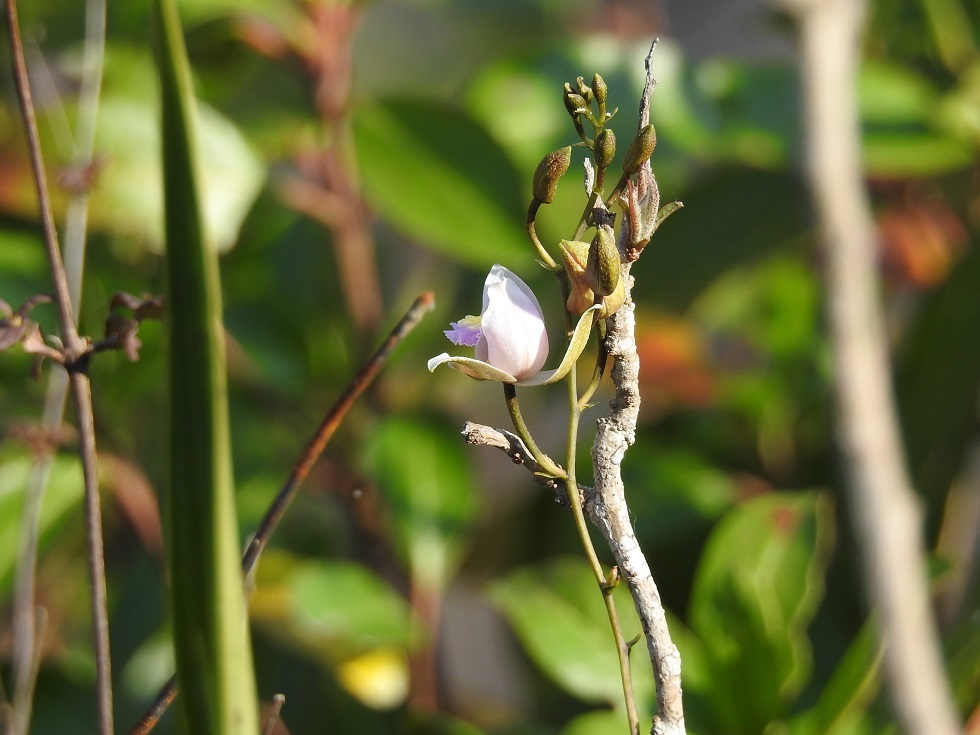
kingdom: Plantae
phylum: Tracheophyta
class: Liliopsida
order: Asparagales
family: Orchidaceae
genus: Bletia
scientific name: Bletia purpurea
